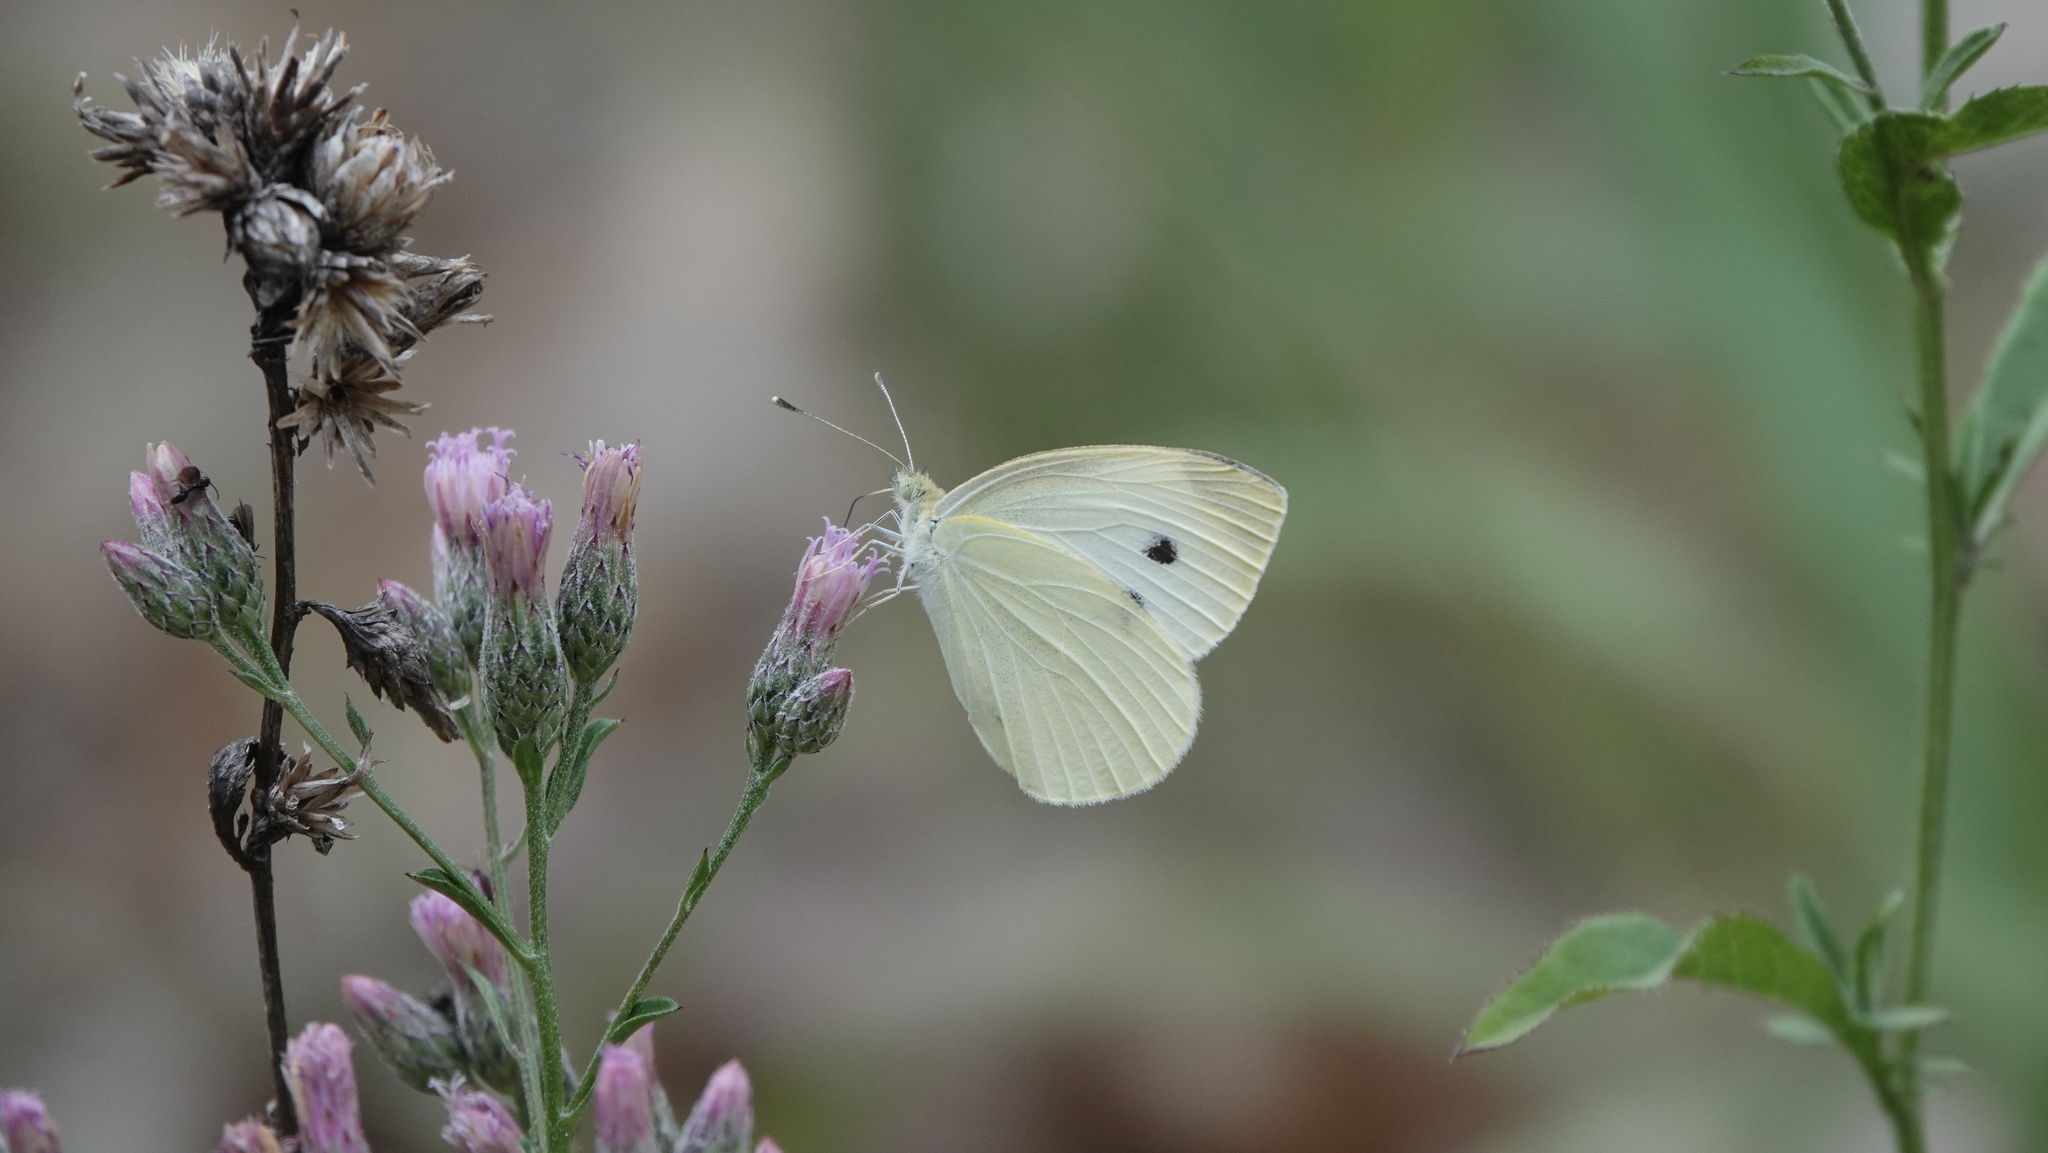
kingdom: Animalia
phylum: Arthropoda
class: Insecta
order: Lepidoptera
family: Pieridae
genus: Pieris
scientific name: Pieris rapae
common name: Small white
